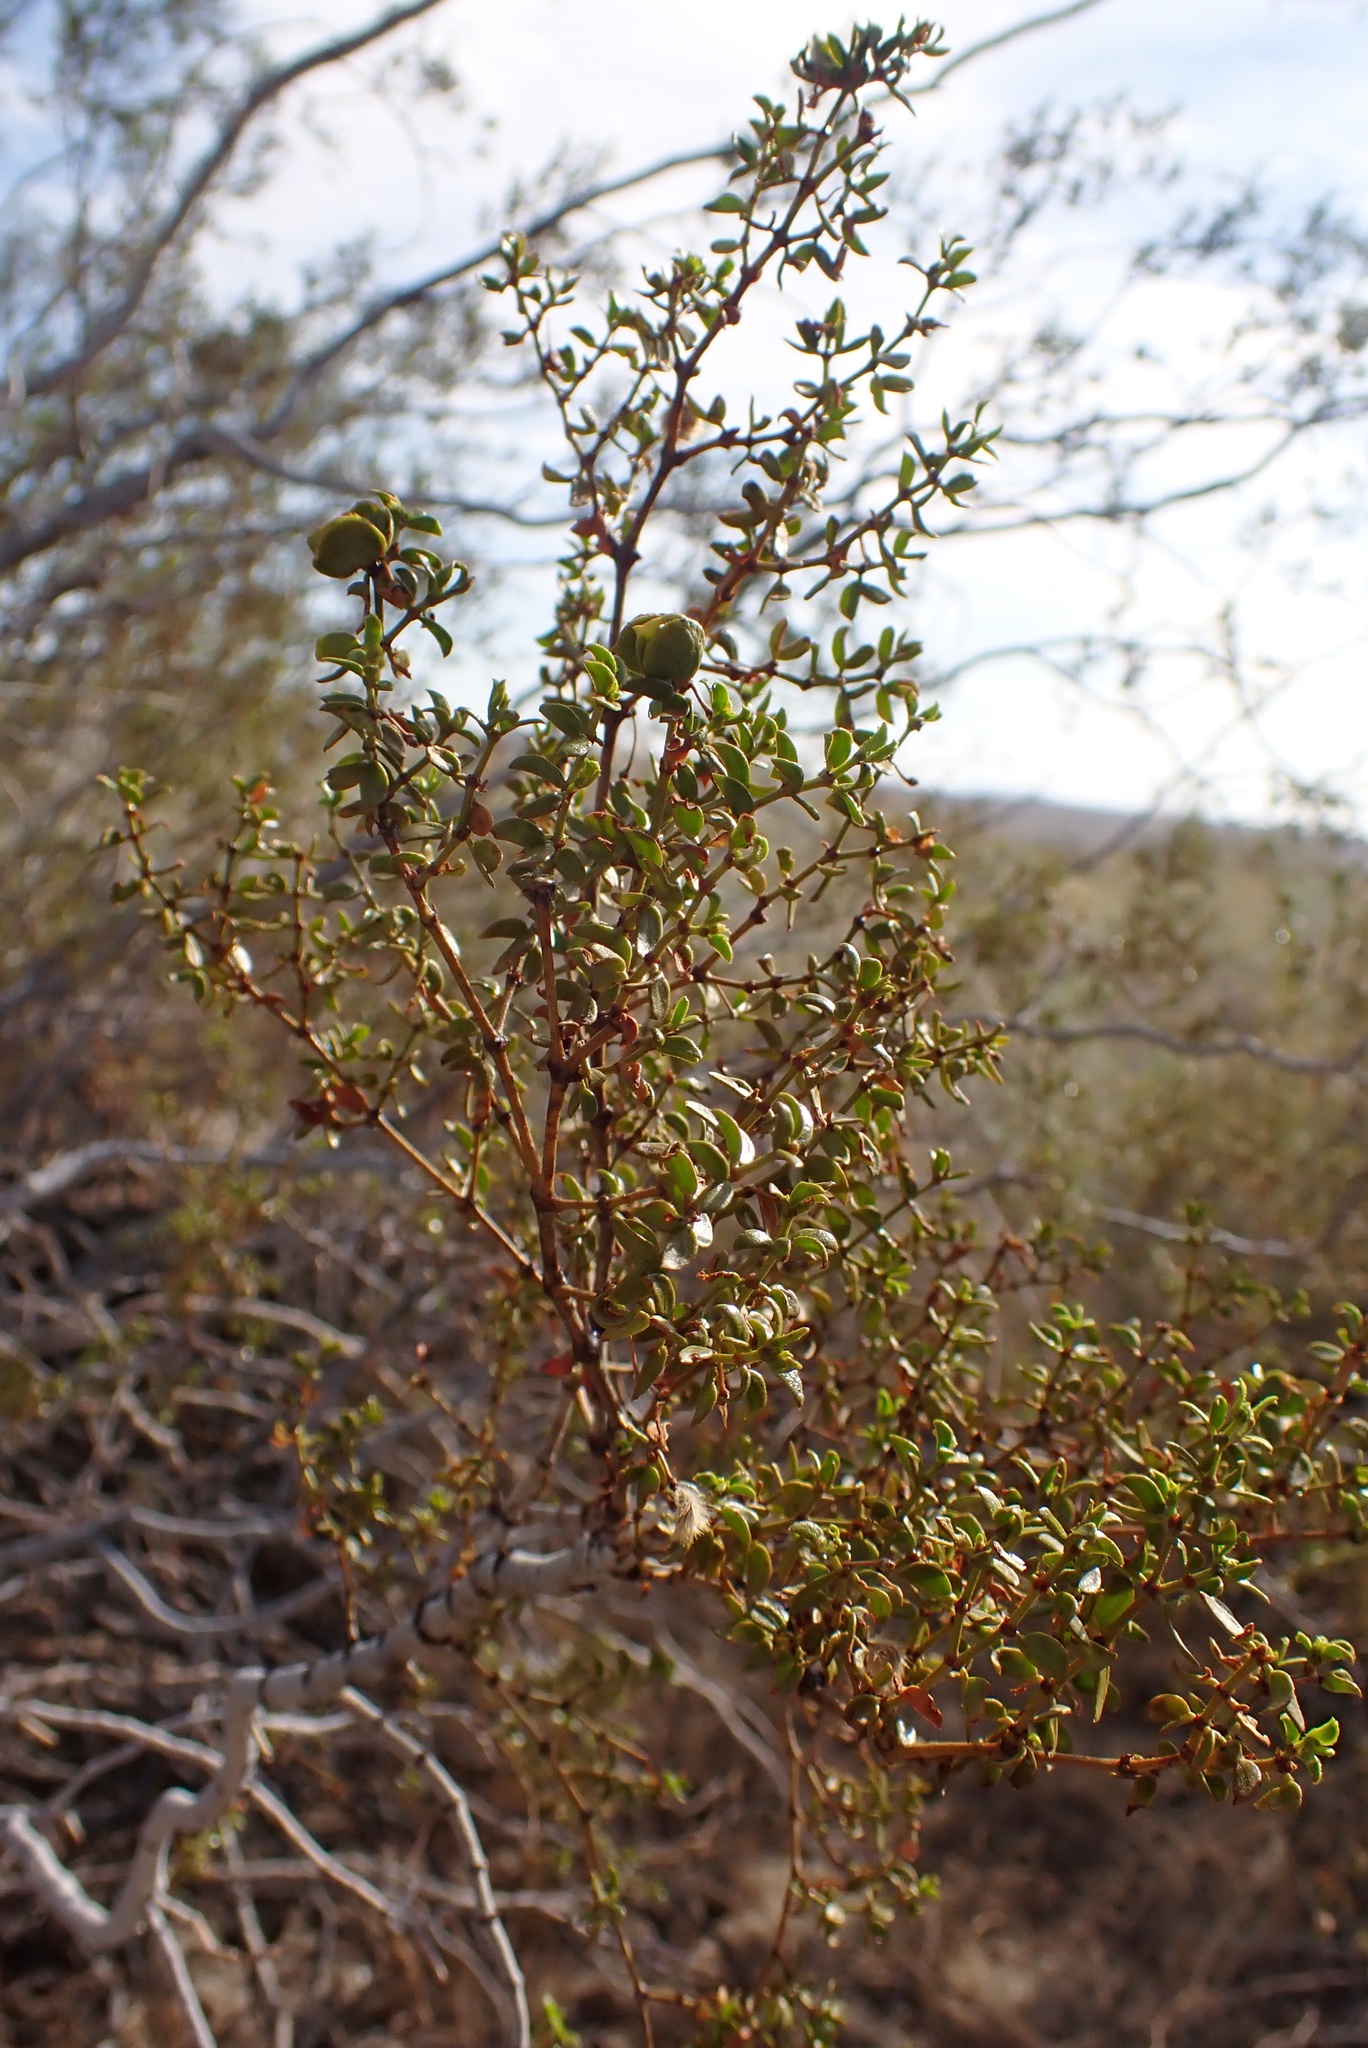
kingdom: Plantae
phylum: Tracheophyta
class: Magnoliopsida
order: Zygophyllales
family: Zygophyllaceae
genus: Larrea
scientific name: Larrea tridentata
